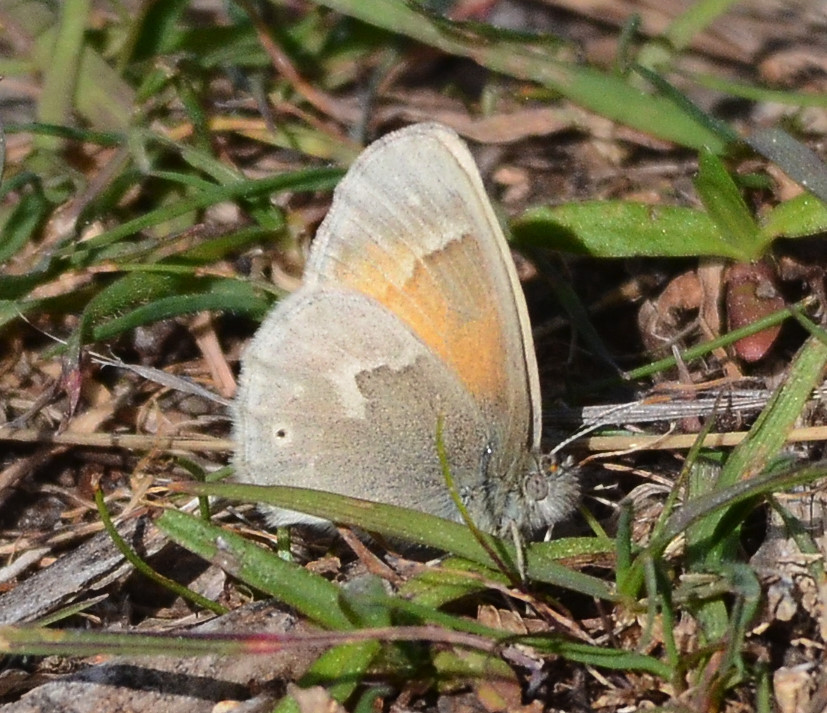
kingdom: Animalia
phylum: Arthropoda
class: Insecta
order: Lepidoptera
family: Nymphalidae
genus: Coenonympha
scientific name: Coenonympha california
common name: Common ringlet
